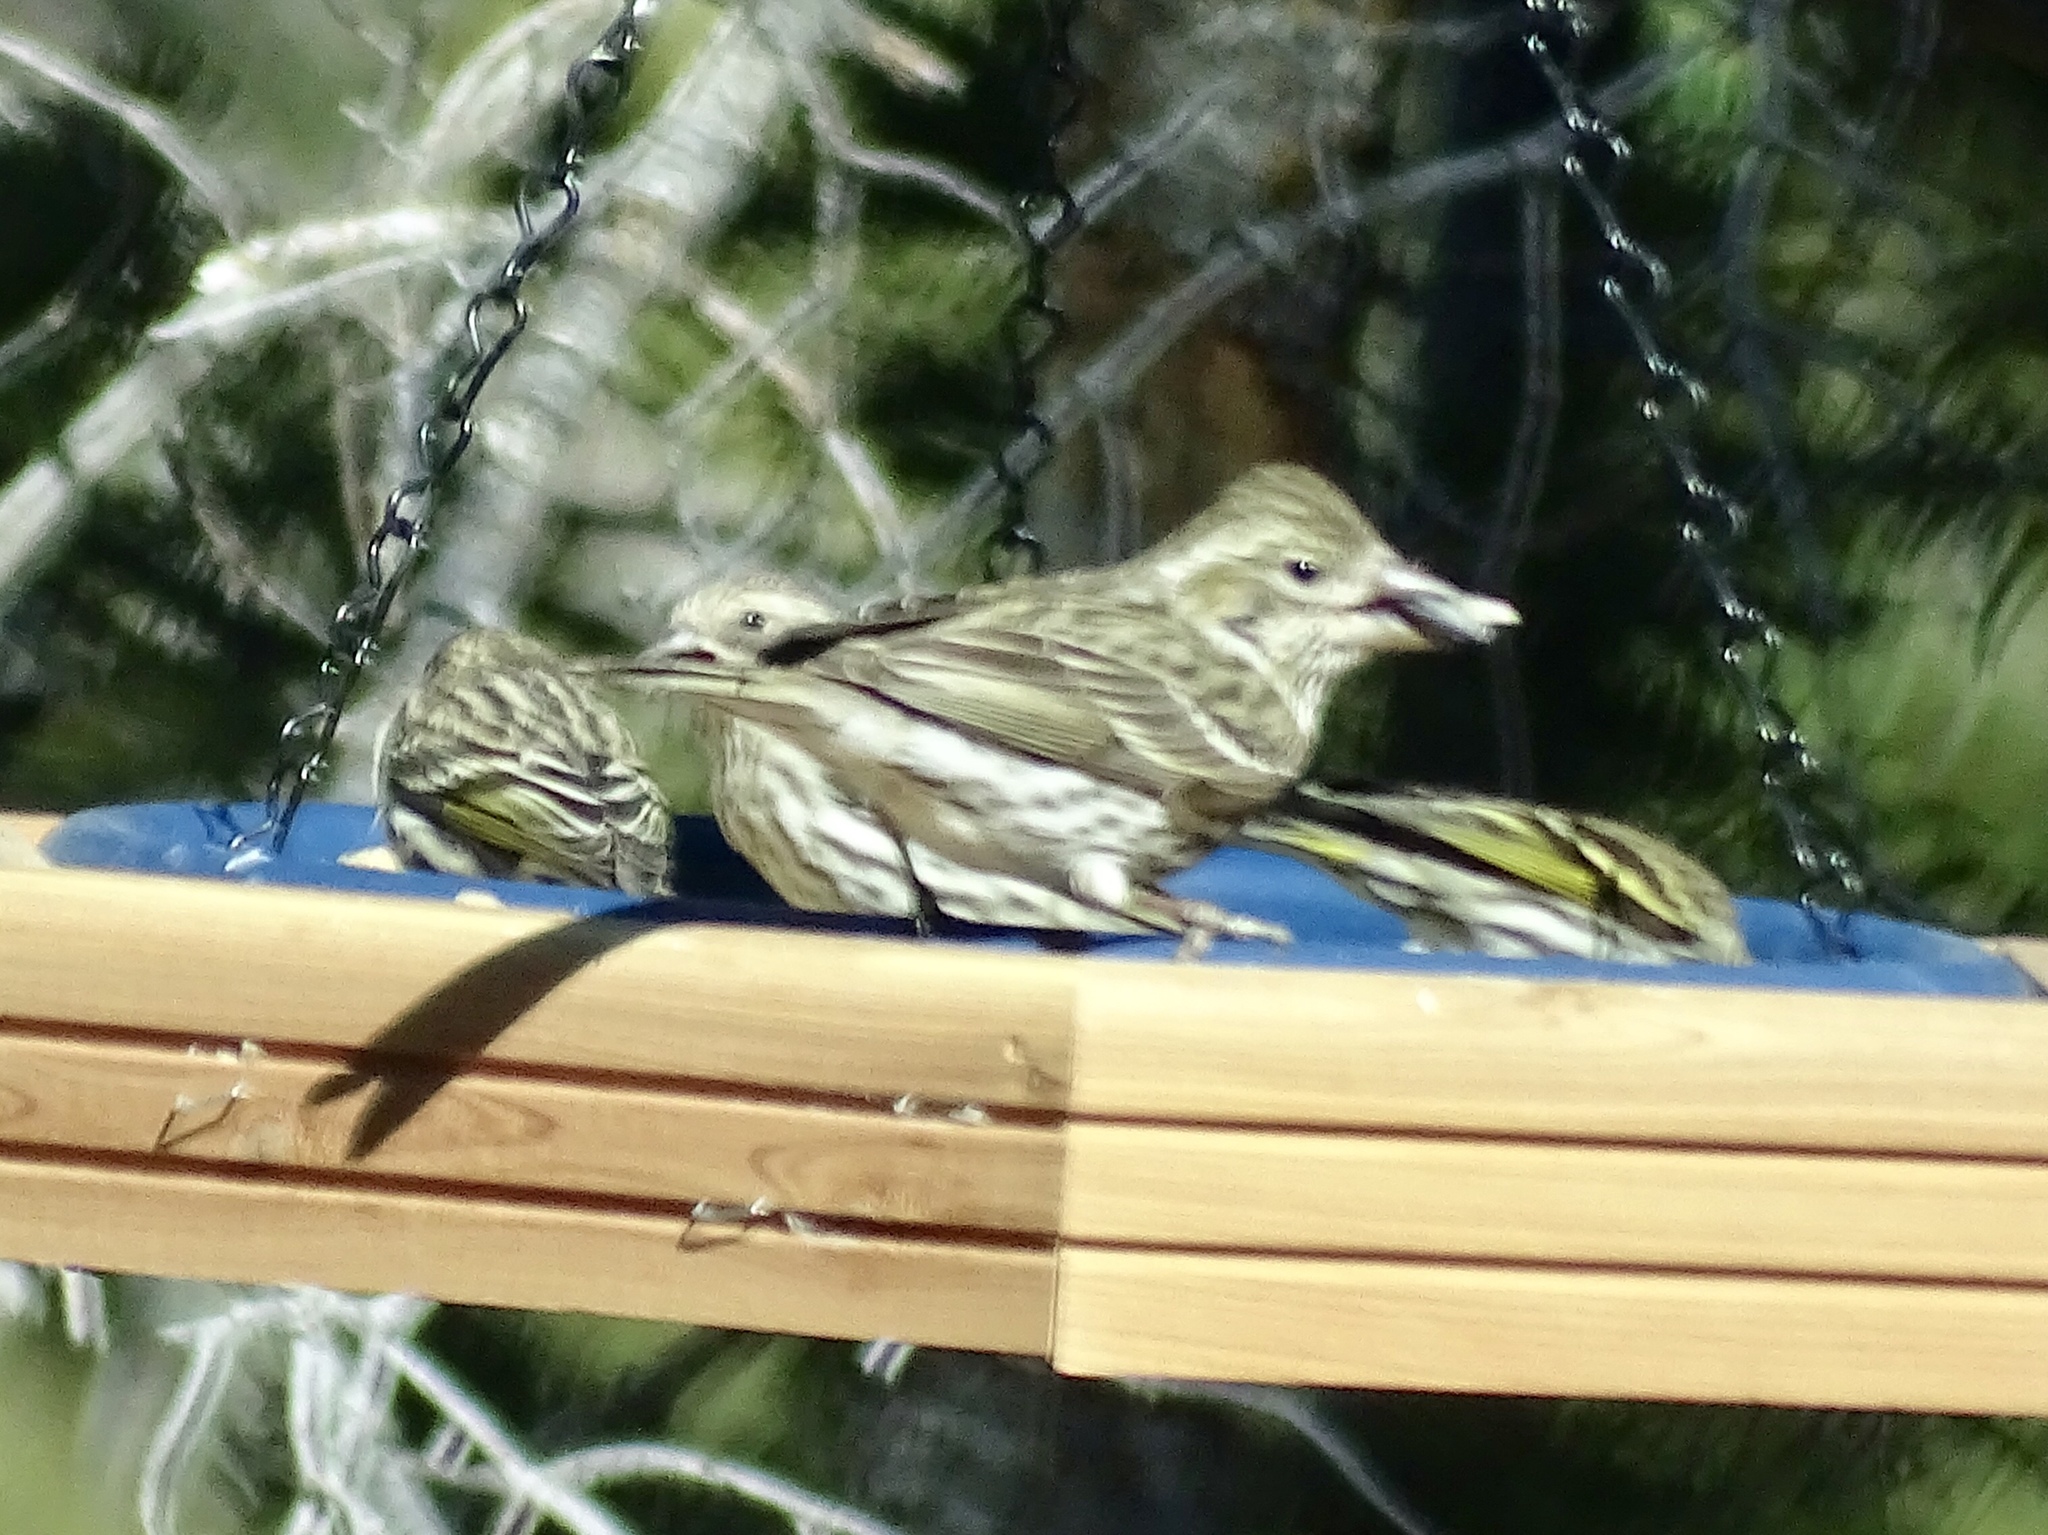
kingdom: Animalia
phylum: Chordata
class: Aves
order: Passeriformes
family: Fringillidae
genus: Haemorhous
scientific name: Haemorhous cassinii
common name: Cassin's finch
